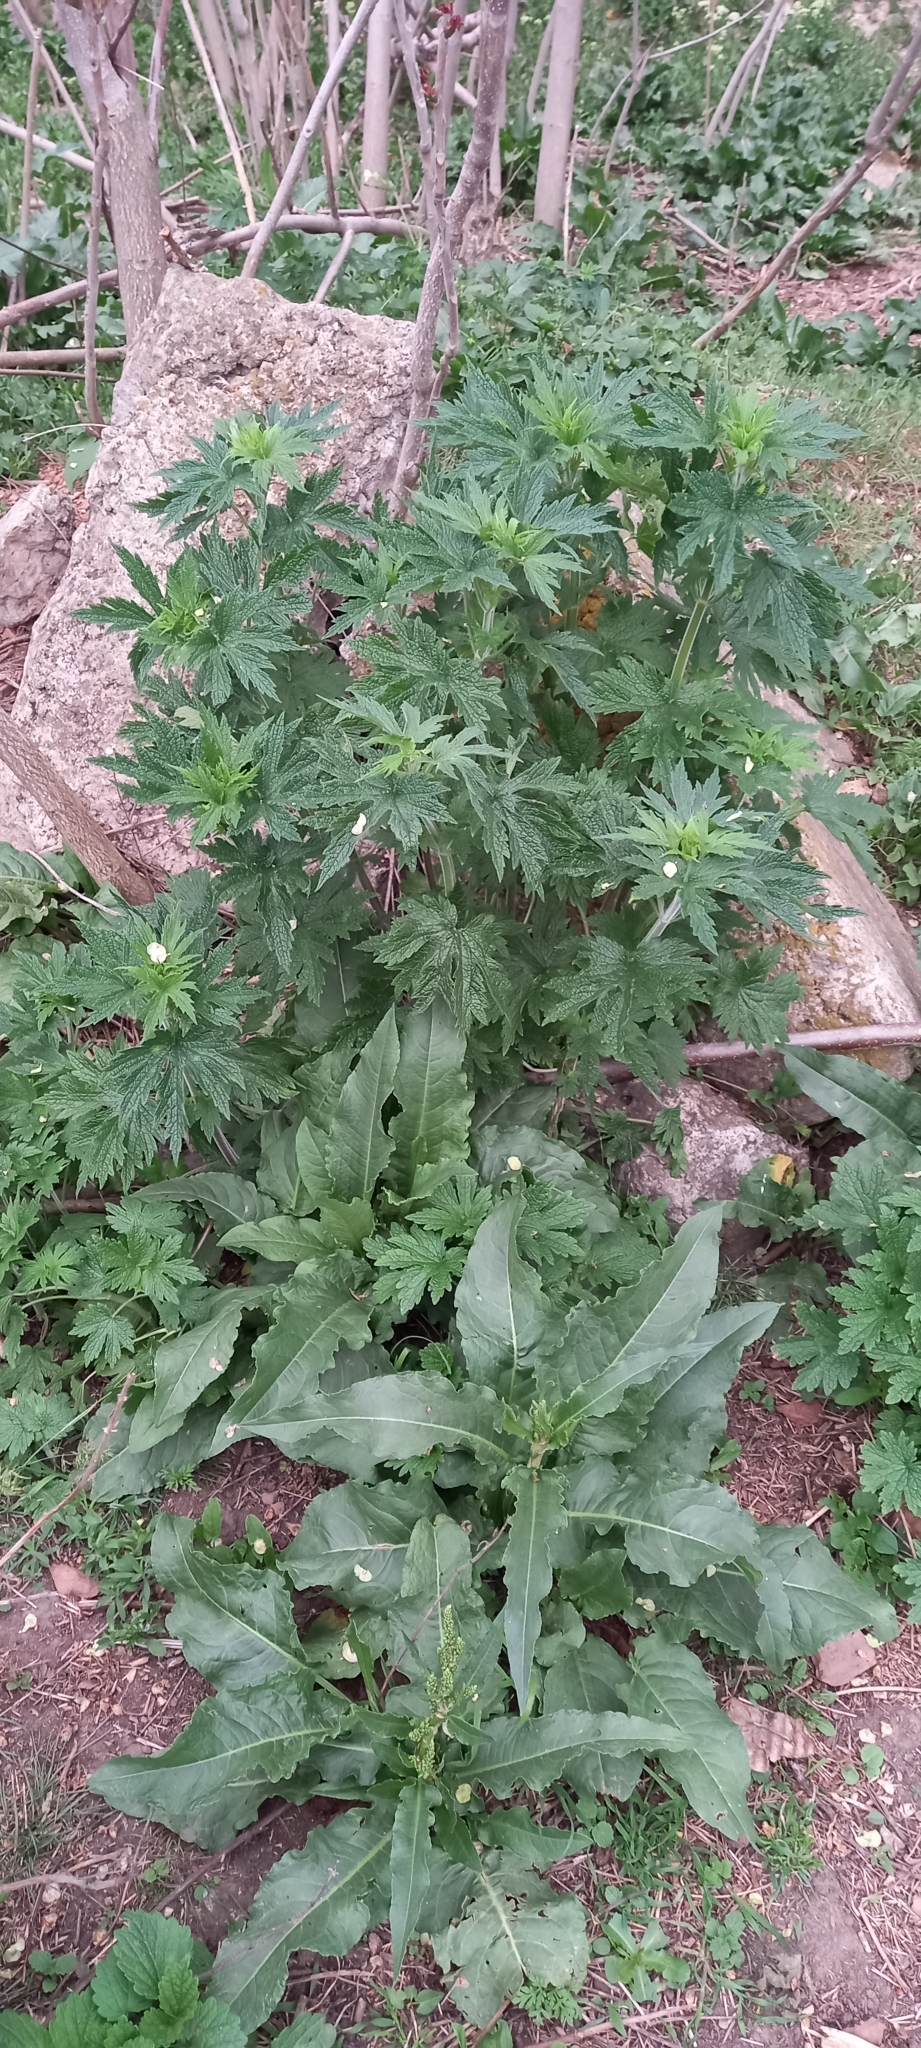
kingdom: Plantae
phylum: Tracheophyta
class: Magnoliopsida
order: Lamiales
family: Lamiaceae
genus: Leonurus
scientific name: Leonurus quinquelobatus
